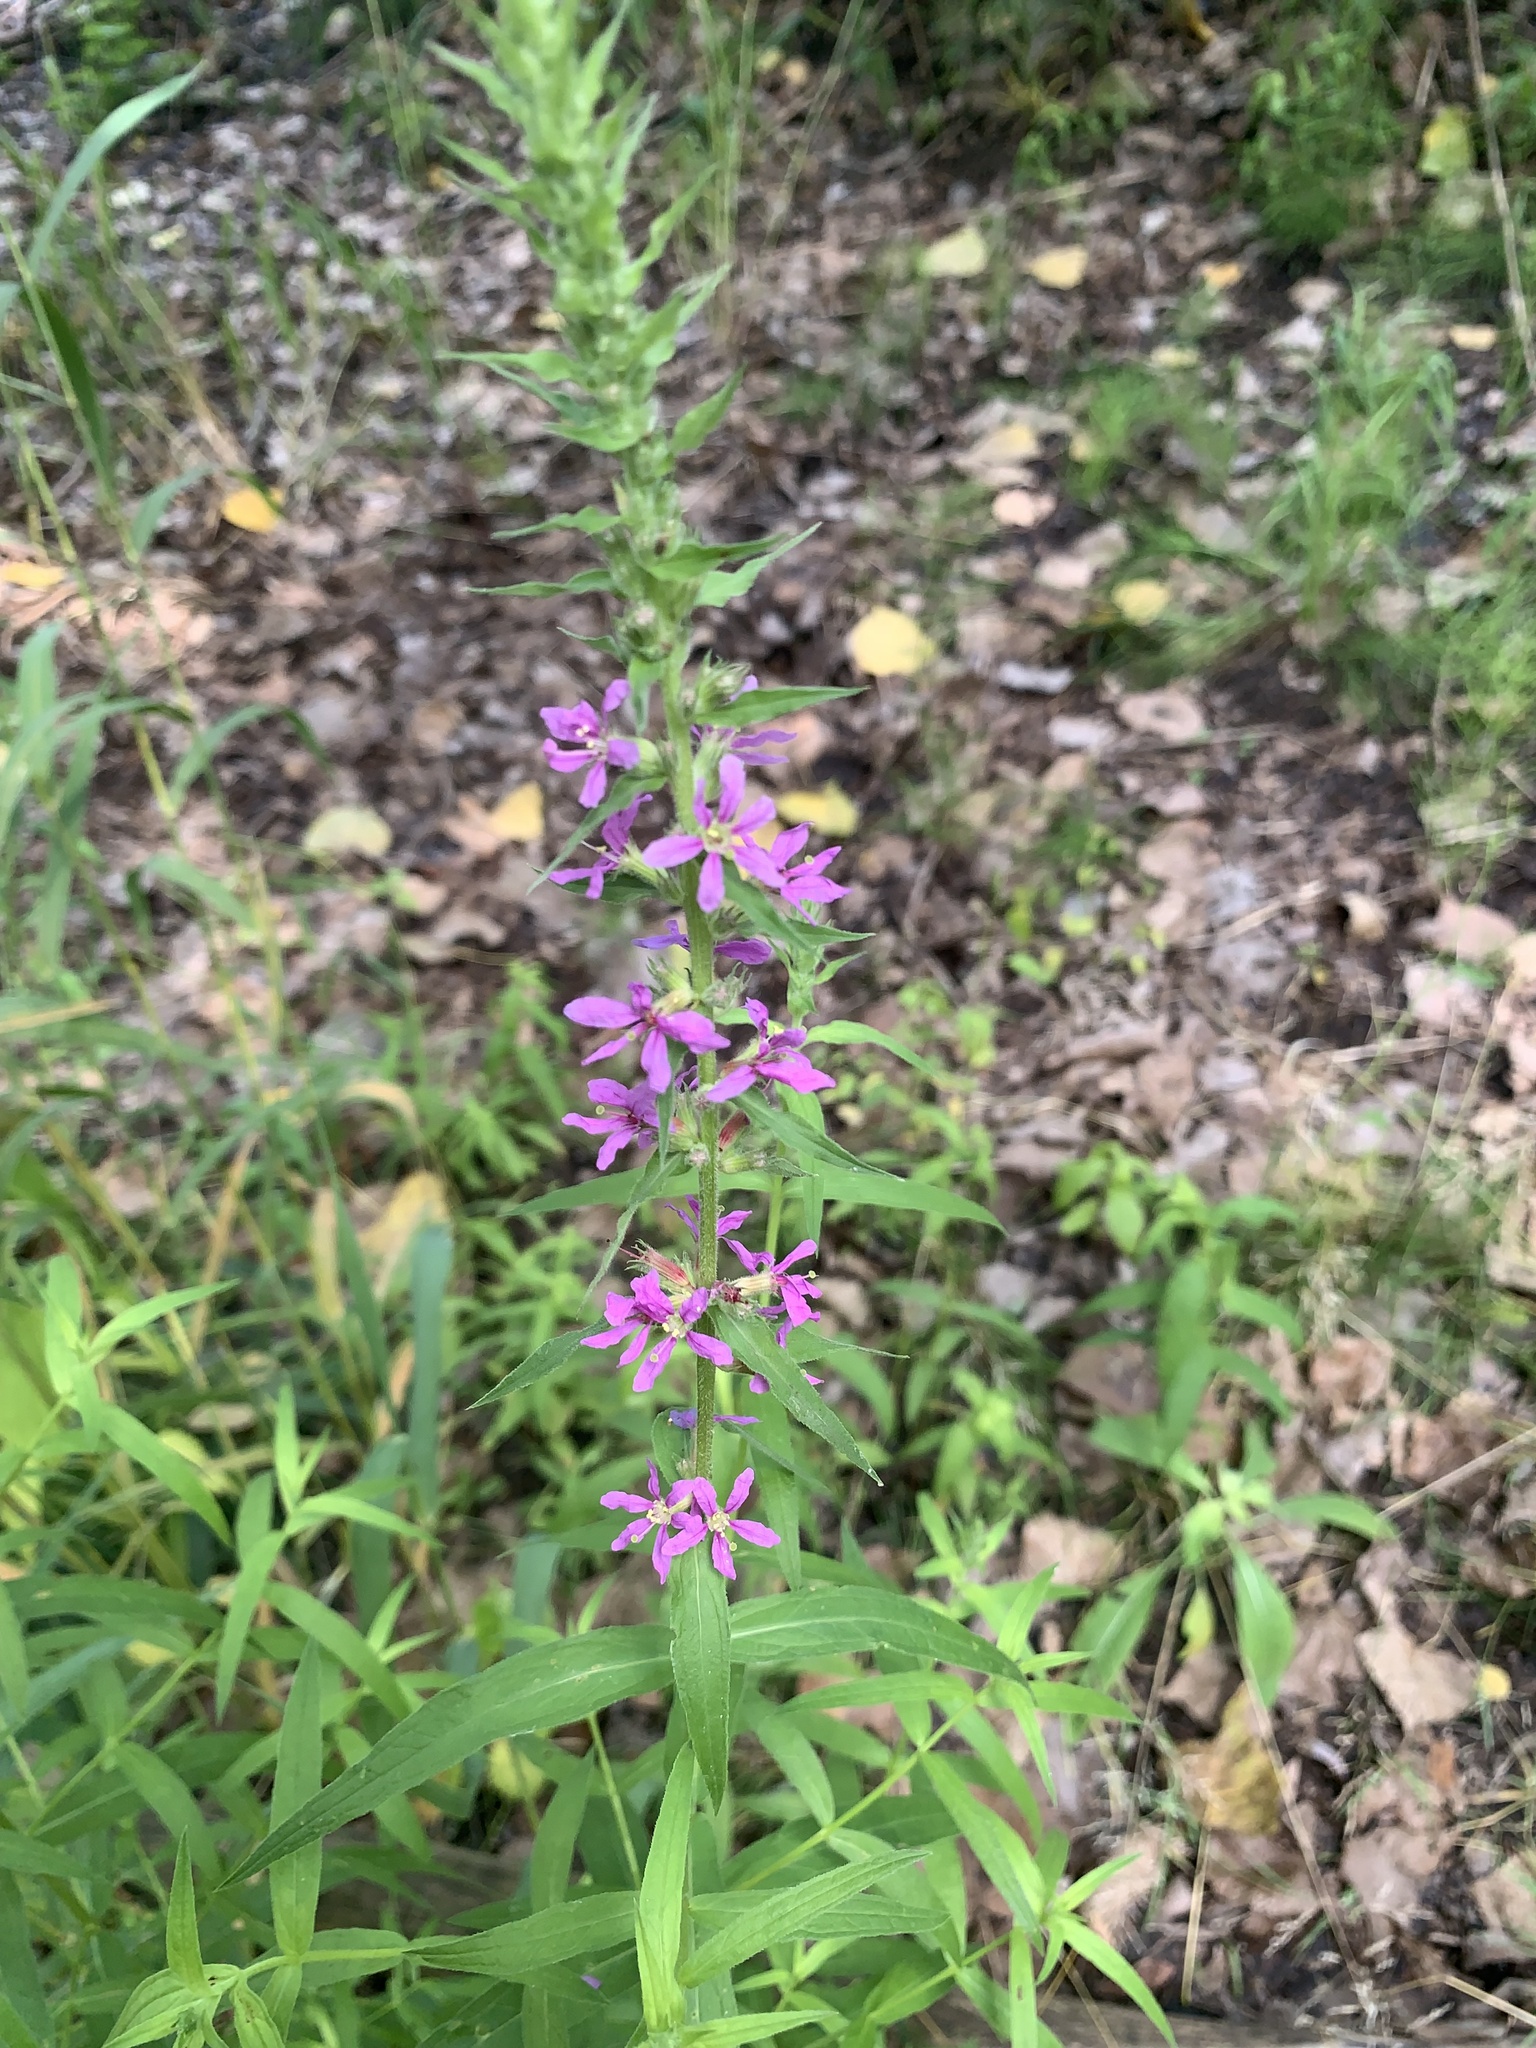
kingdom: Plantae
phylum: Tracheophyta
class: Magnoliopsida
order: Myrtales
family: Lythraceae
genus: Lythrum
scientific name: Lythrum salicaria
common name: Purple loosestrife
